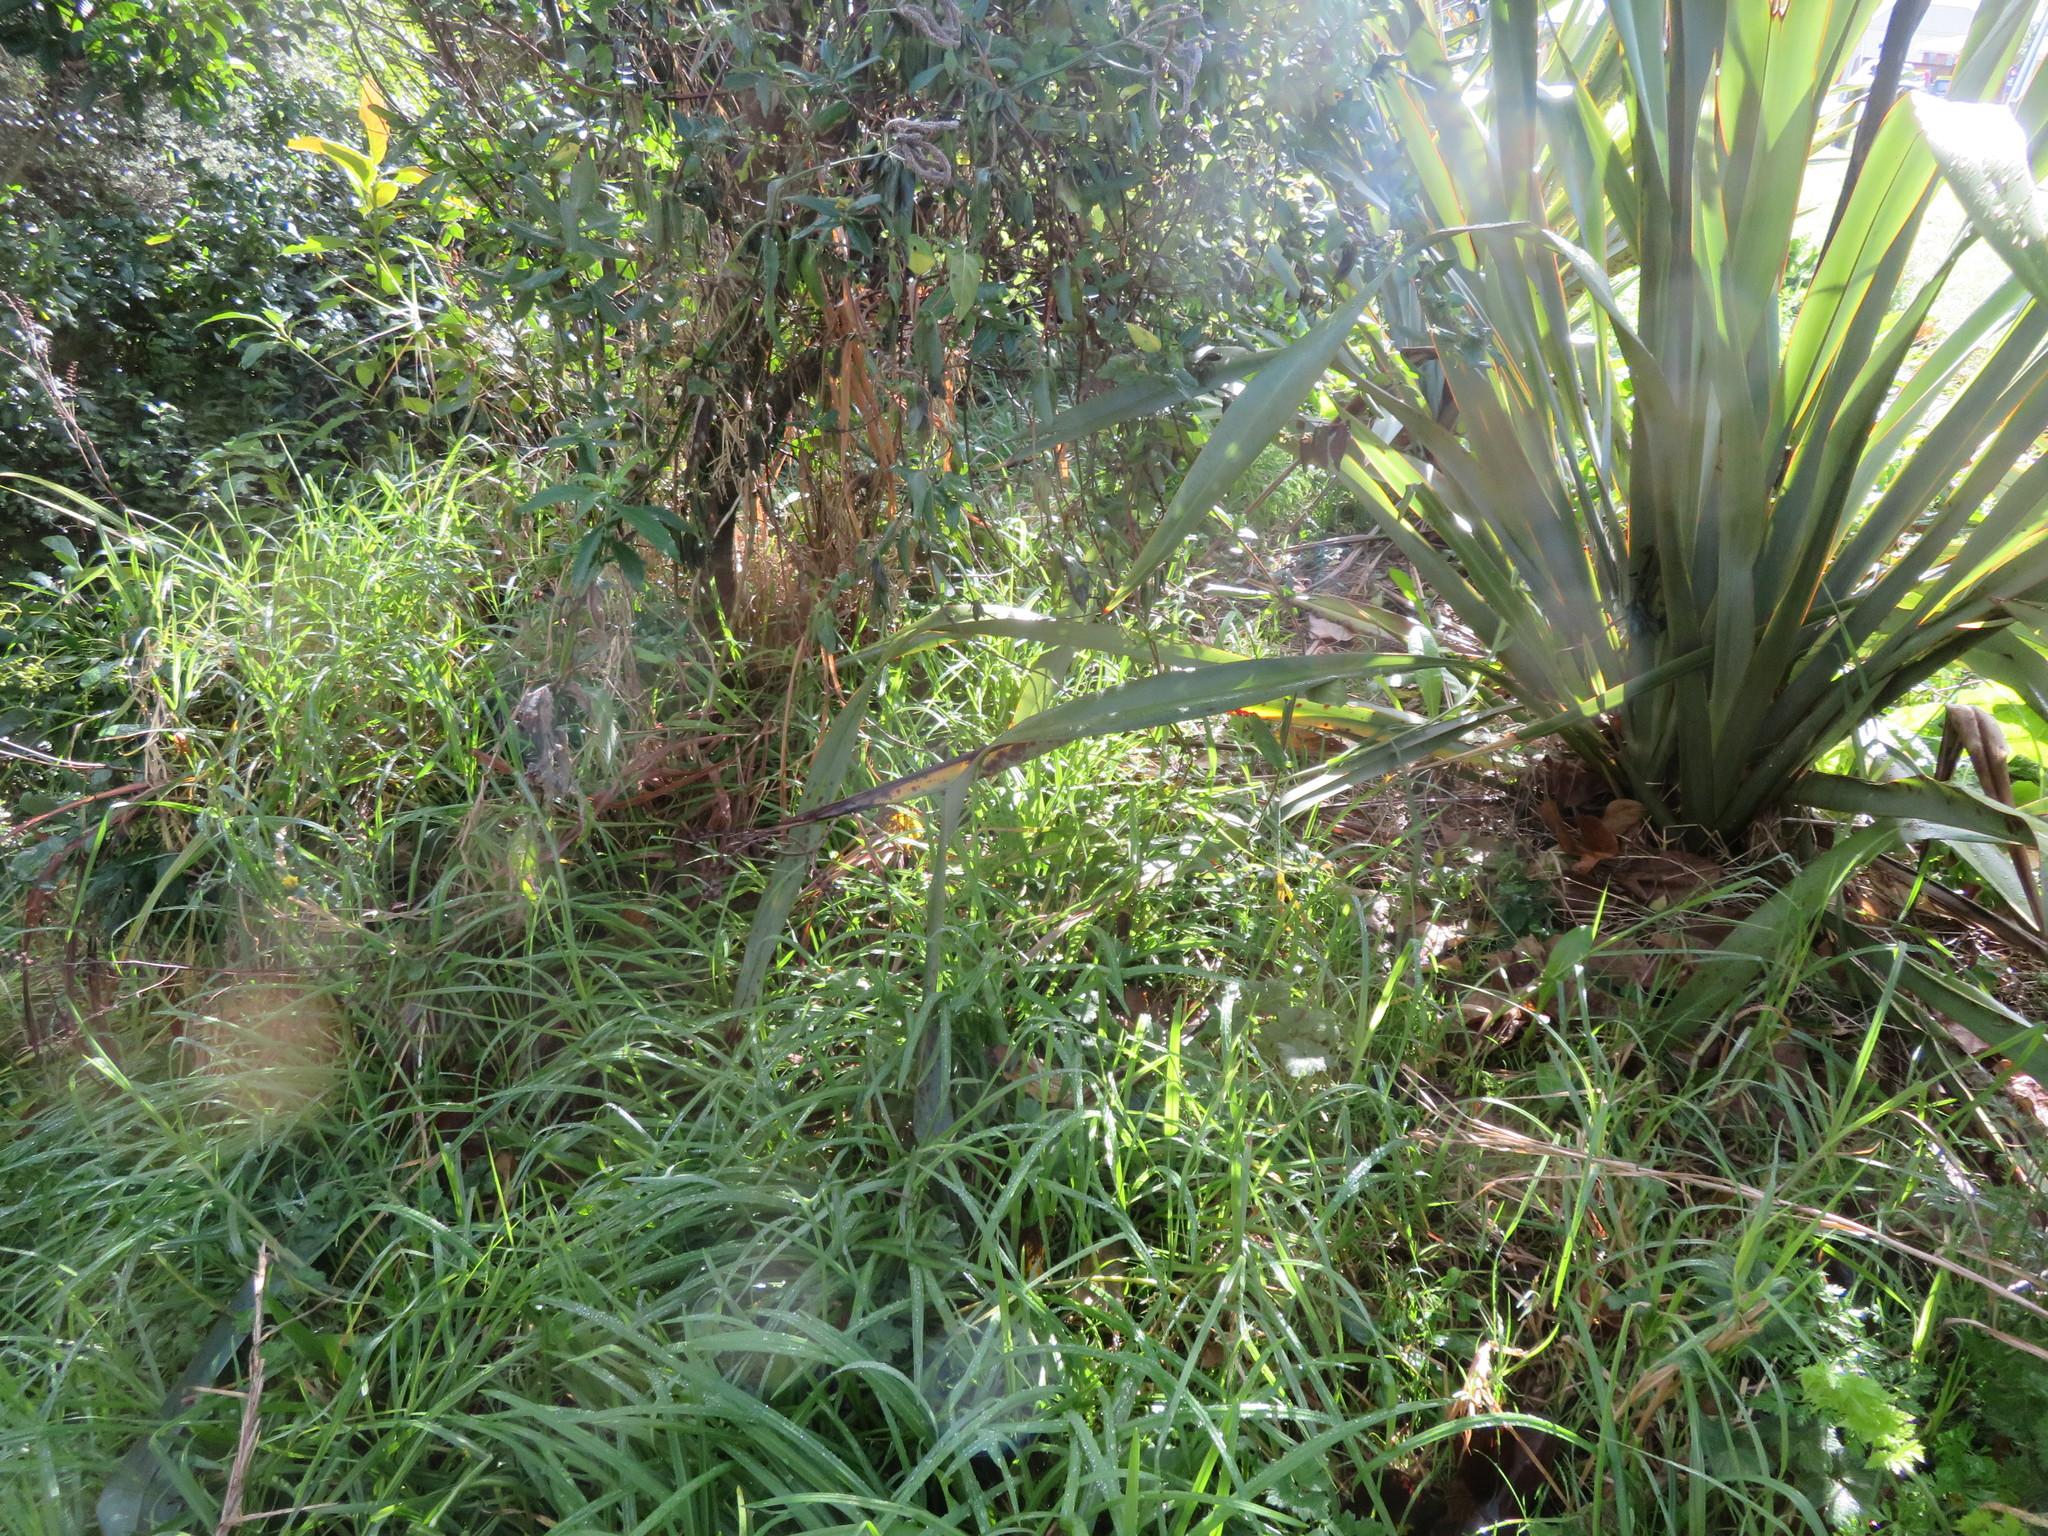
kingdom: Plantae
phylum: Tracheophyta
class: Liliopsida
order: Poales
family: Poaceae
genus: Cenchrus
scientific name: Cenchrus clandestinus
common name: Kikuyugrass
